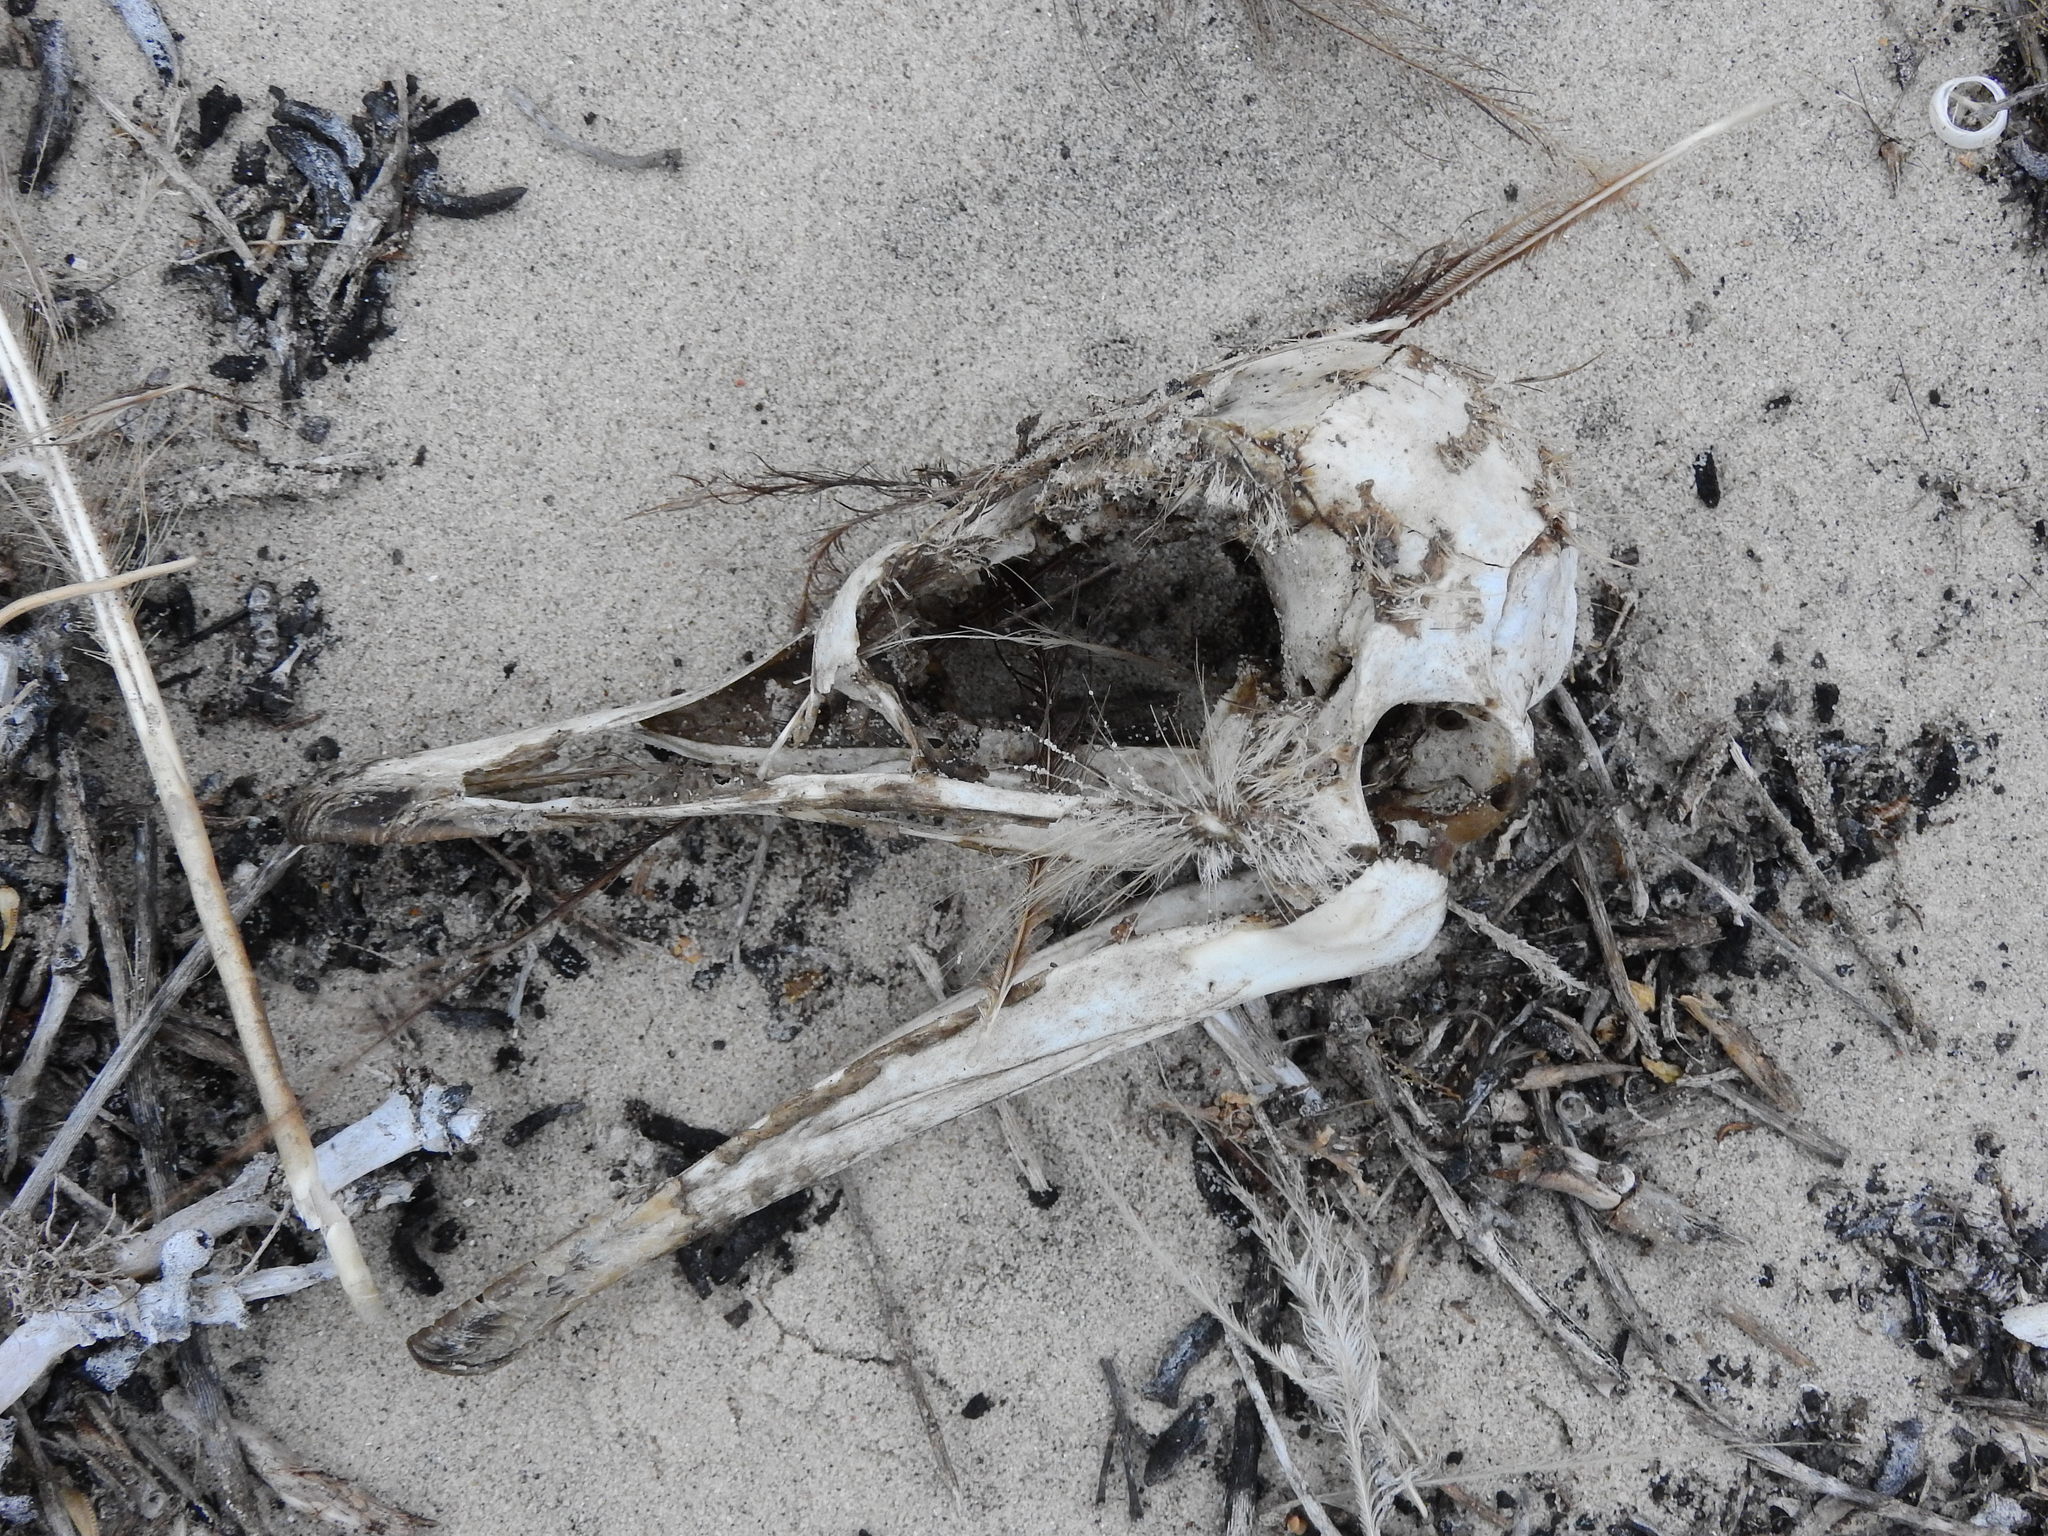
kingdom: Animalia
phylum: Chordata
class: Aves
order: Struthioniformes
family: Struthionidae
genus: Struthio
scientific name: Struthio camelus
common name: Common ostrich
